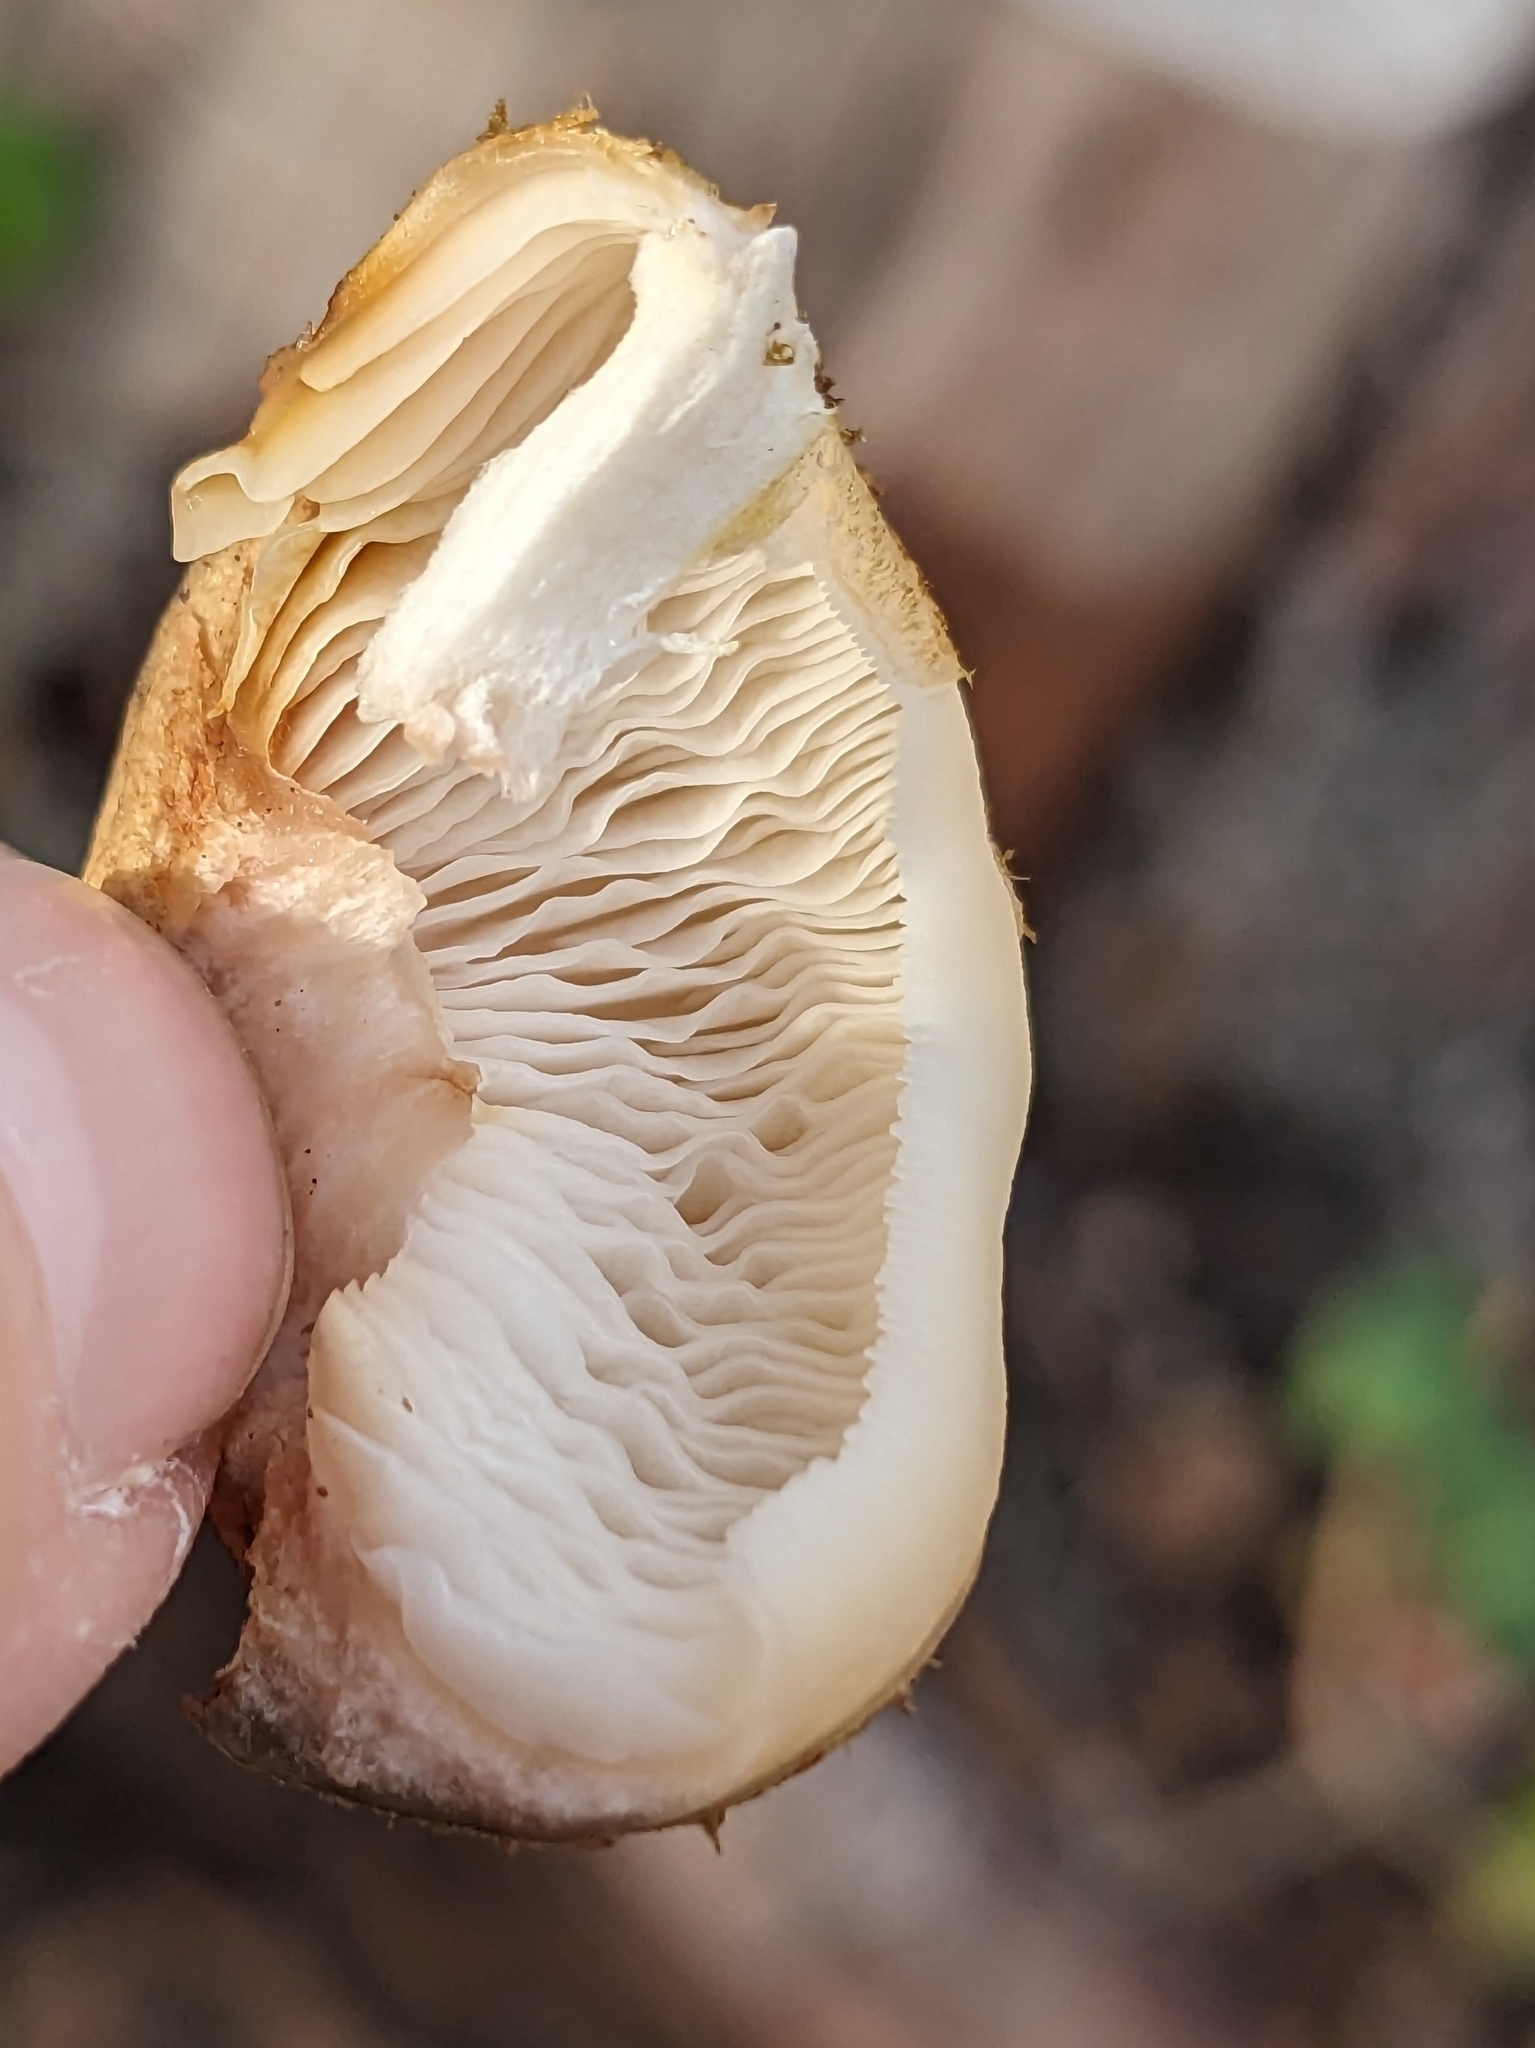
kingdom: Fungi
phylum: Basidiomycota
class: Agaricomycetes
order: Agaricales
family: Physalacriaceae
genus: Armillaria
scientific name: Armillaria mellea
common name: Honey fungus
